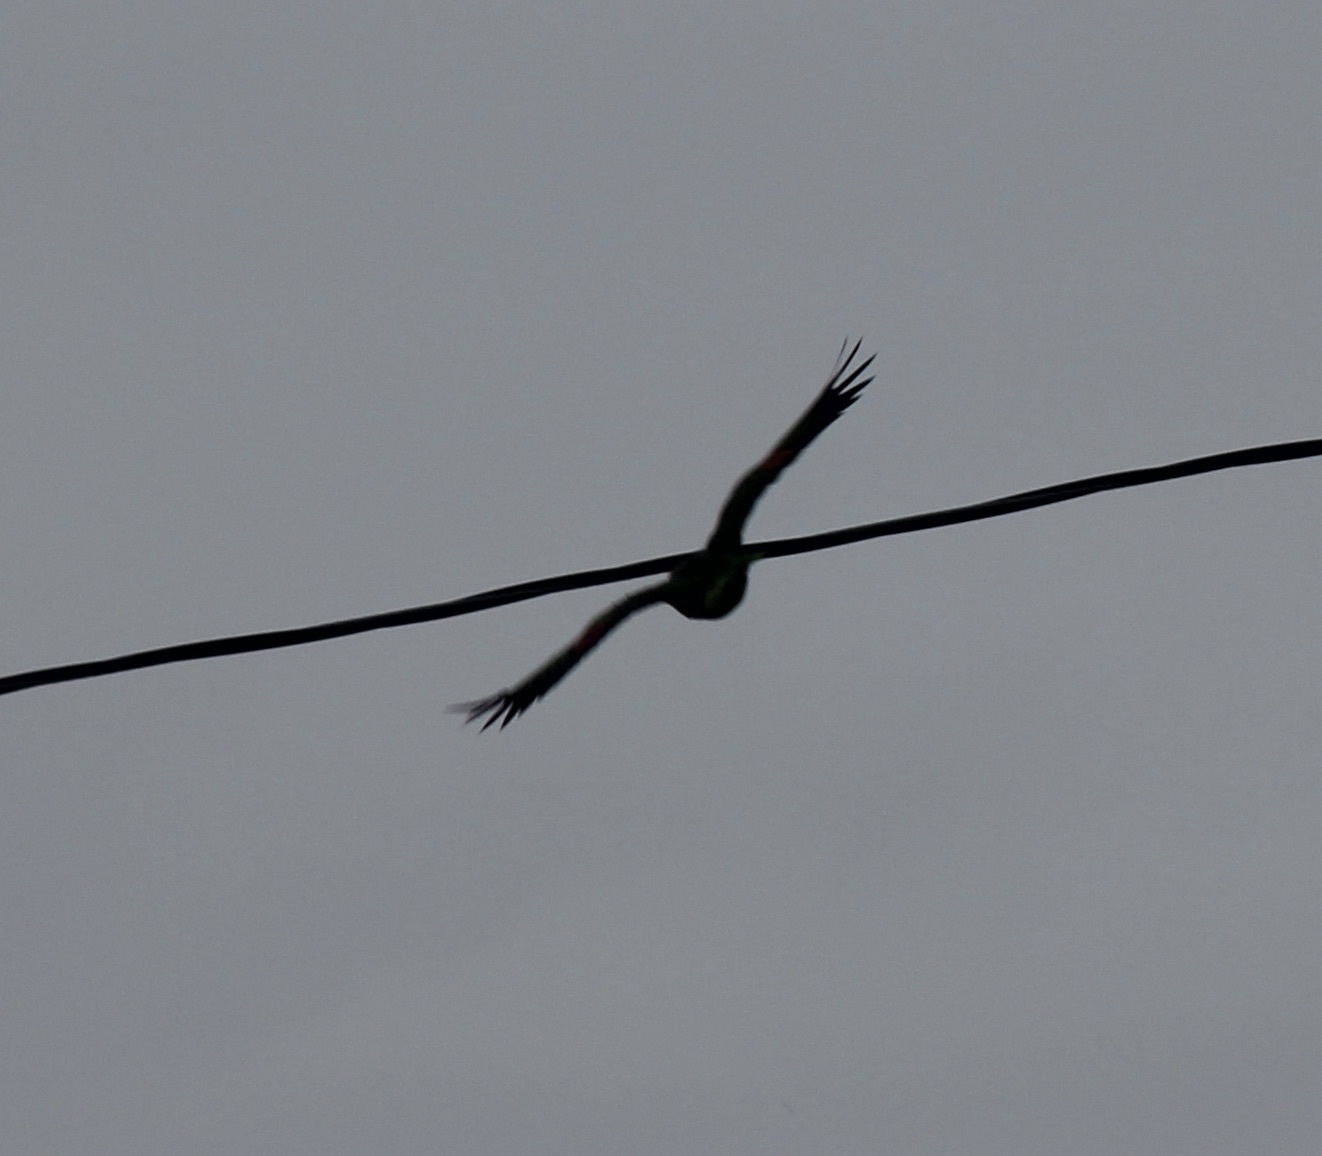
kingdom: Animalia
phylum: Chordata
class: Aves
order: Psittaciformes
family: Psittacidae
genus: Amazona
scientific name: Amazona autumnalis
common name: Red-lored amazon
